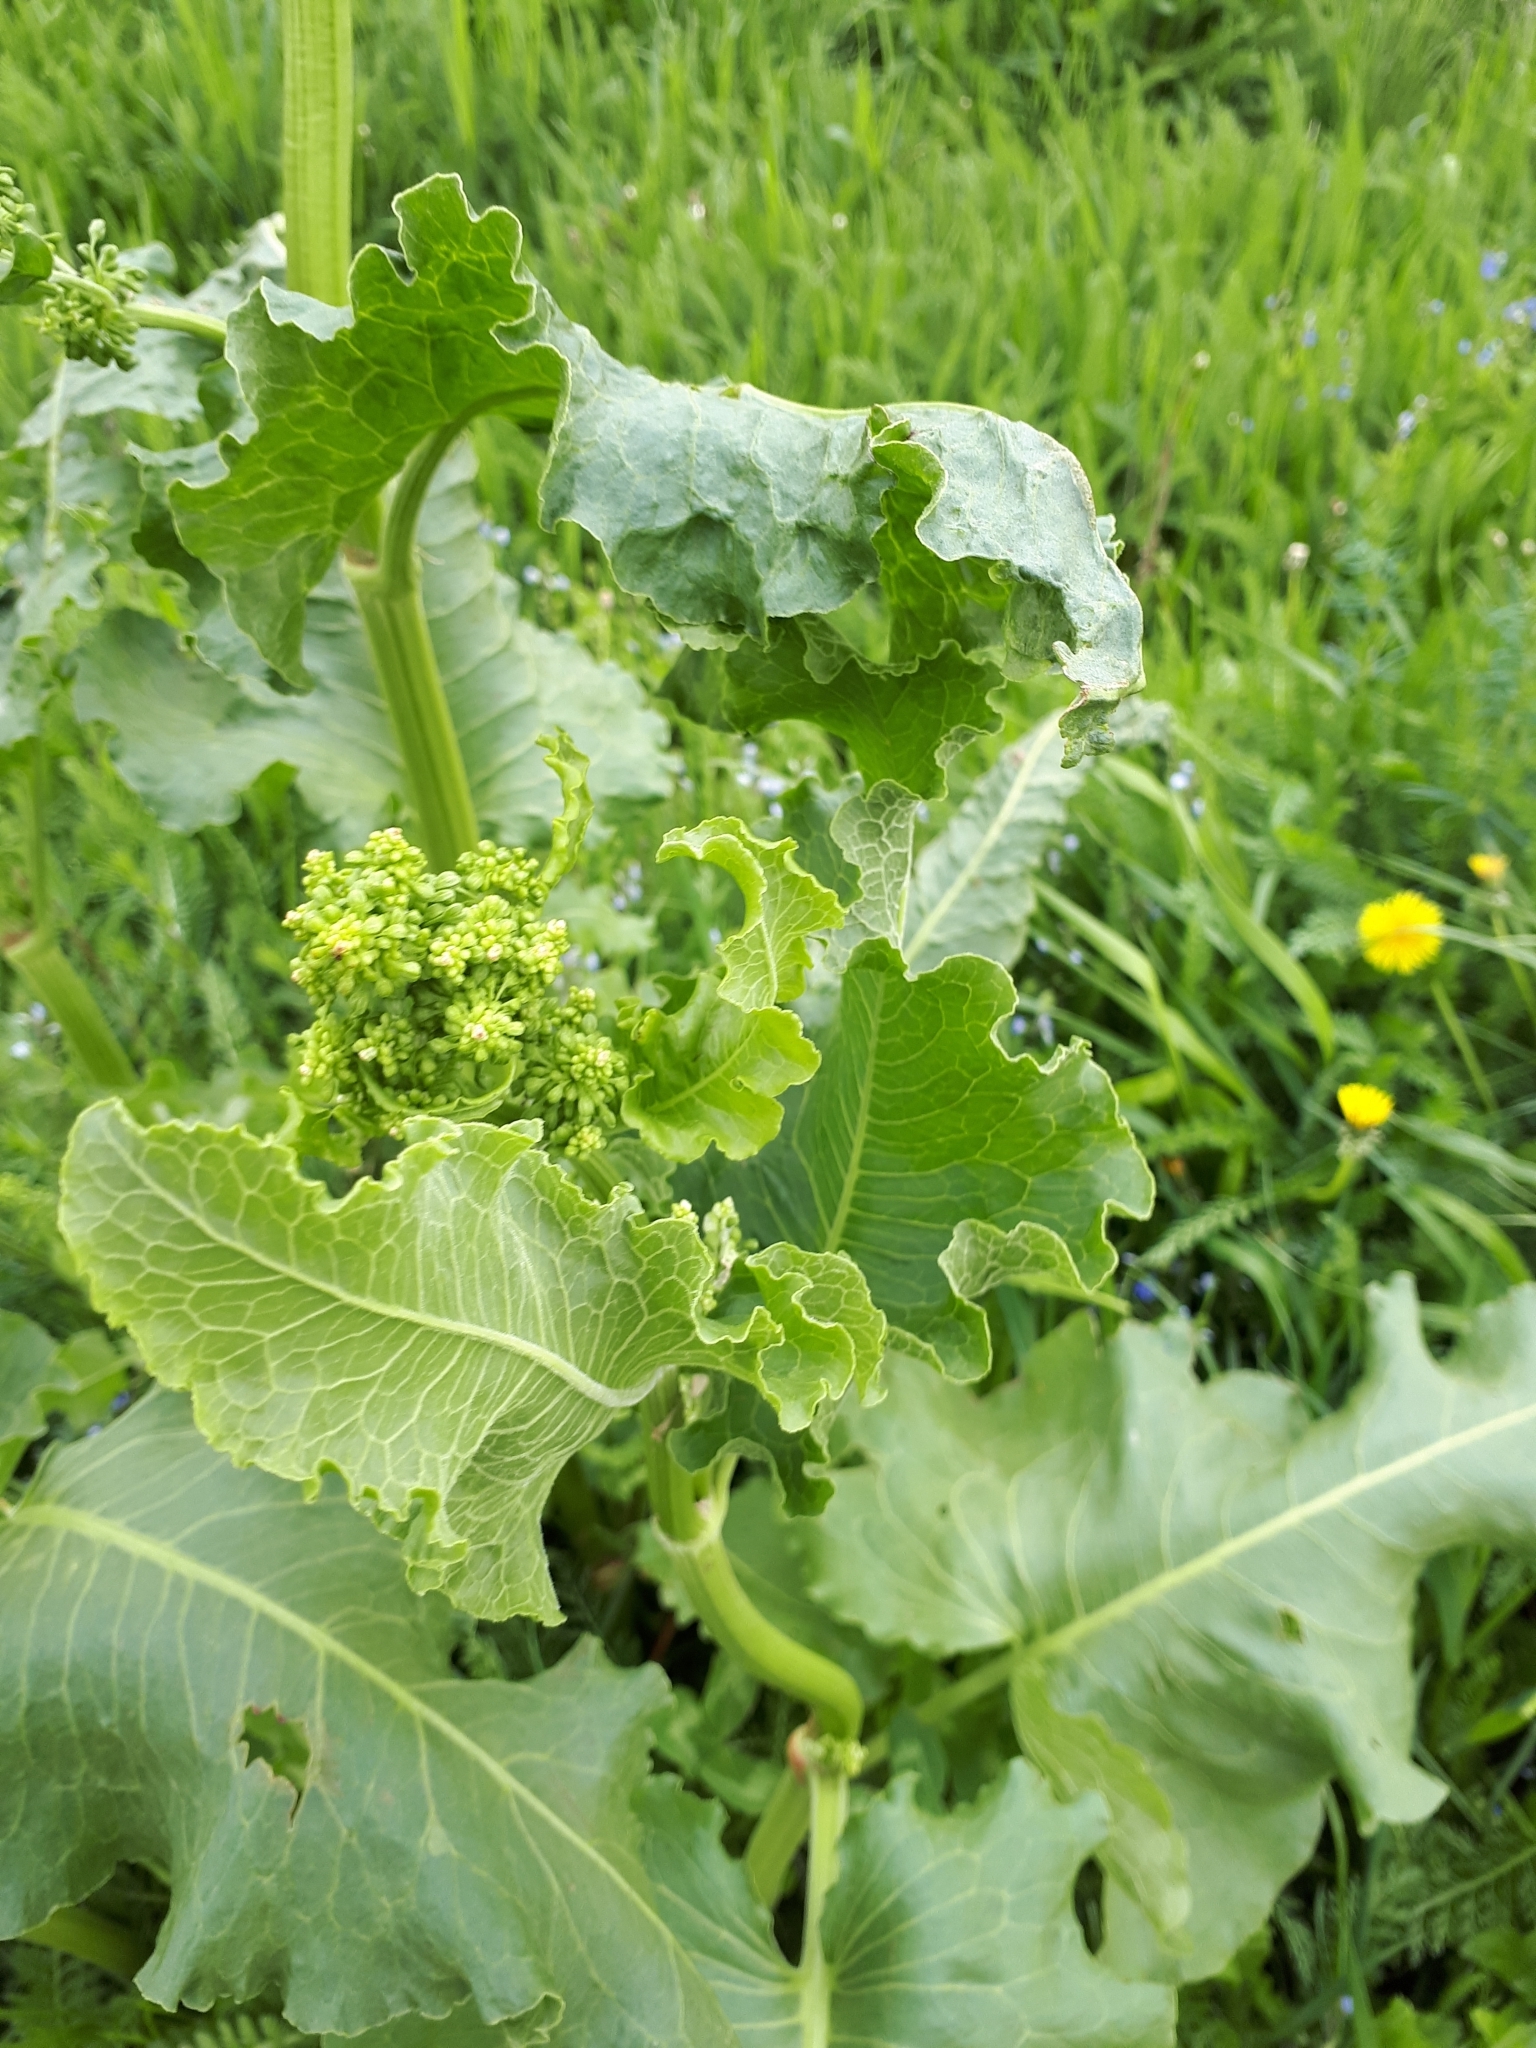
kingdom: Plantae
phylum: Tracheophyta
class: Magnoliopsida
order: Caryophyllales
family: Polygonaceae
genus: Rumex
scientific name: Rumex confertus
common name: Russian dock
